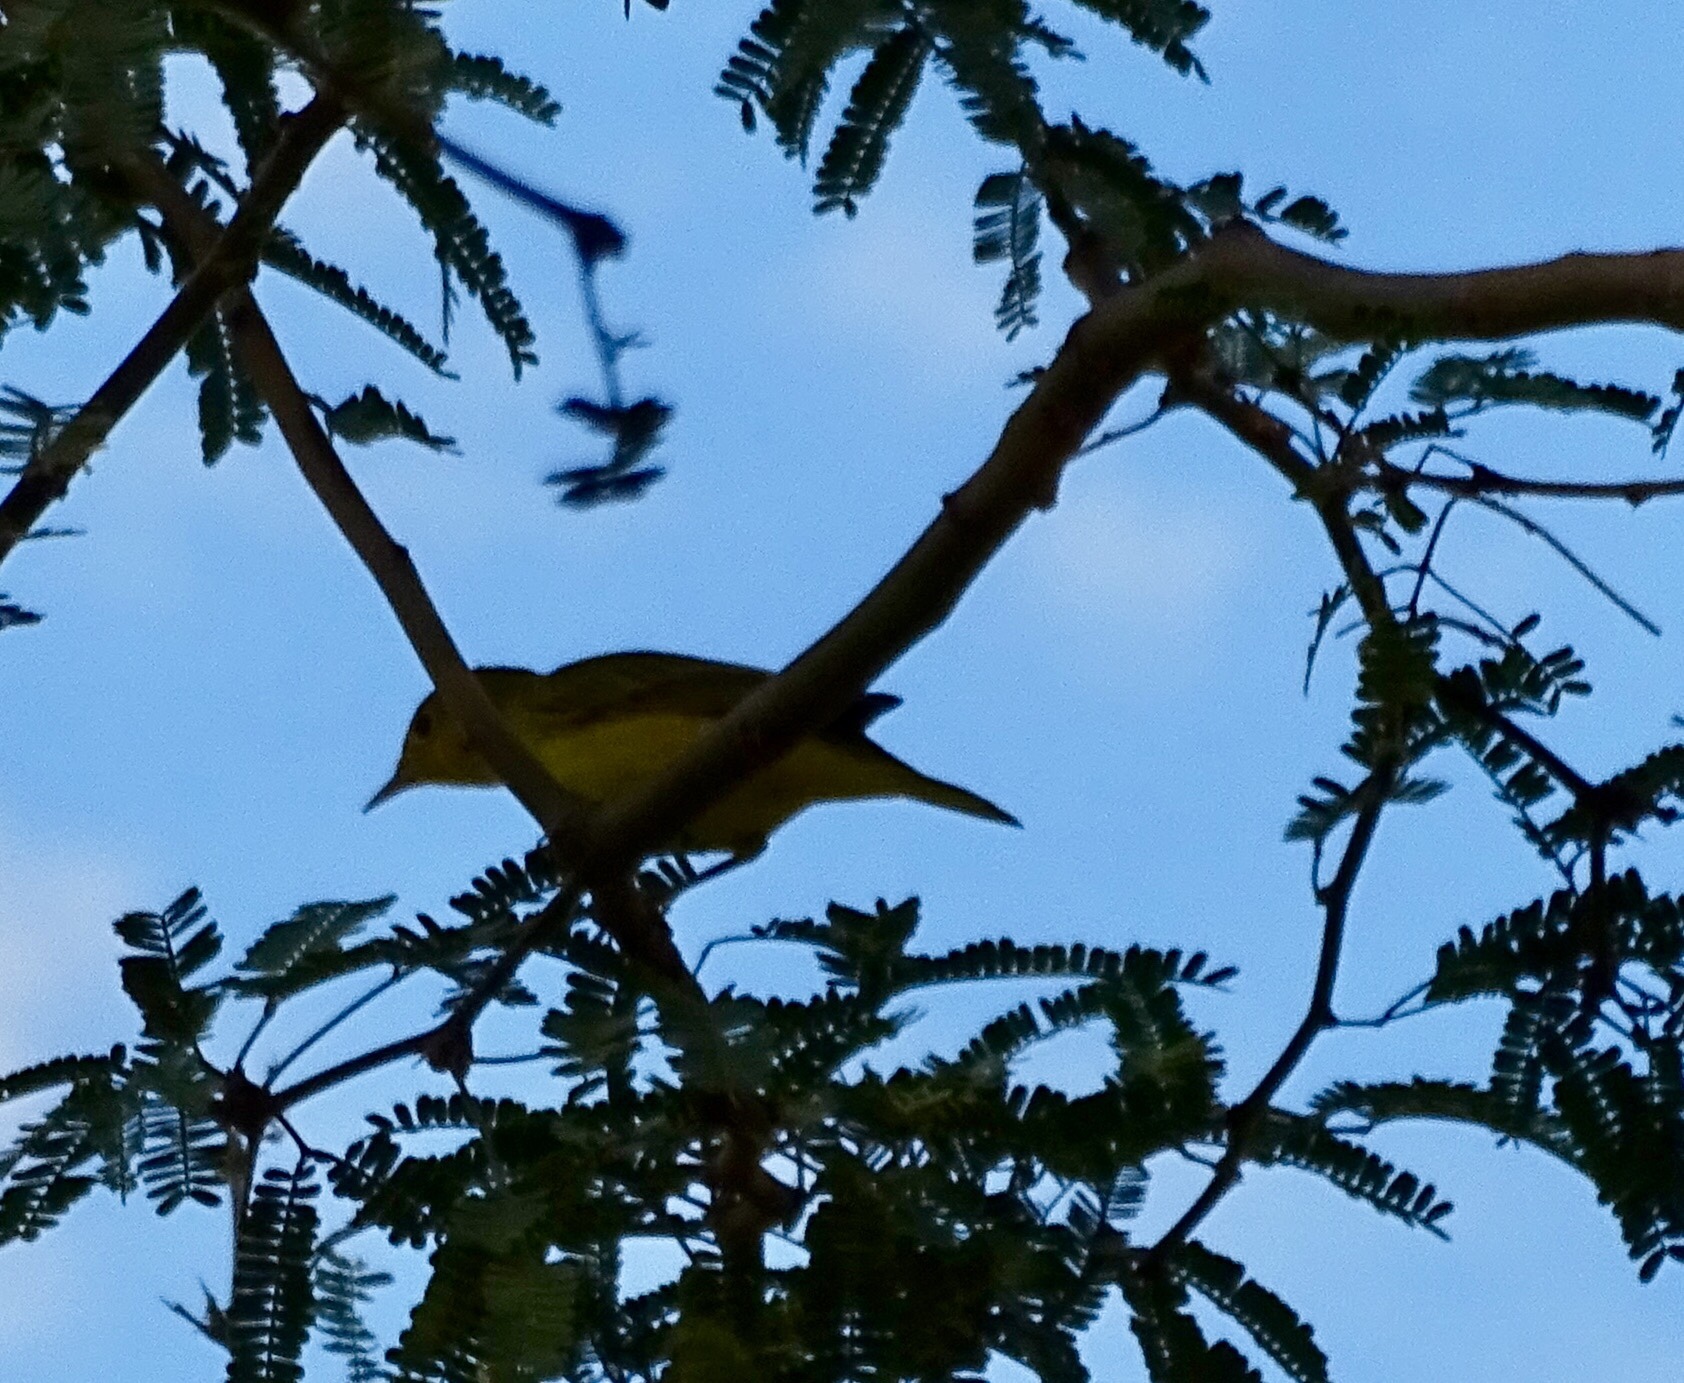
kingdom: Animalia
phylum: Chordata
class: Aves
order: Passeriformes
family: Parulidae
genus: Setophaga
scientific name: Setophaga petechia
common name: Yellow warbler
